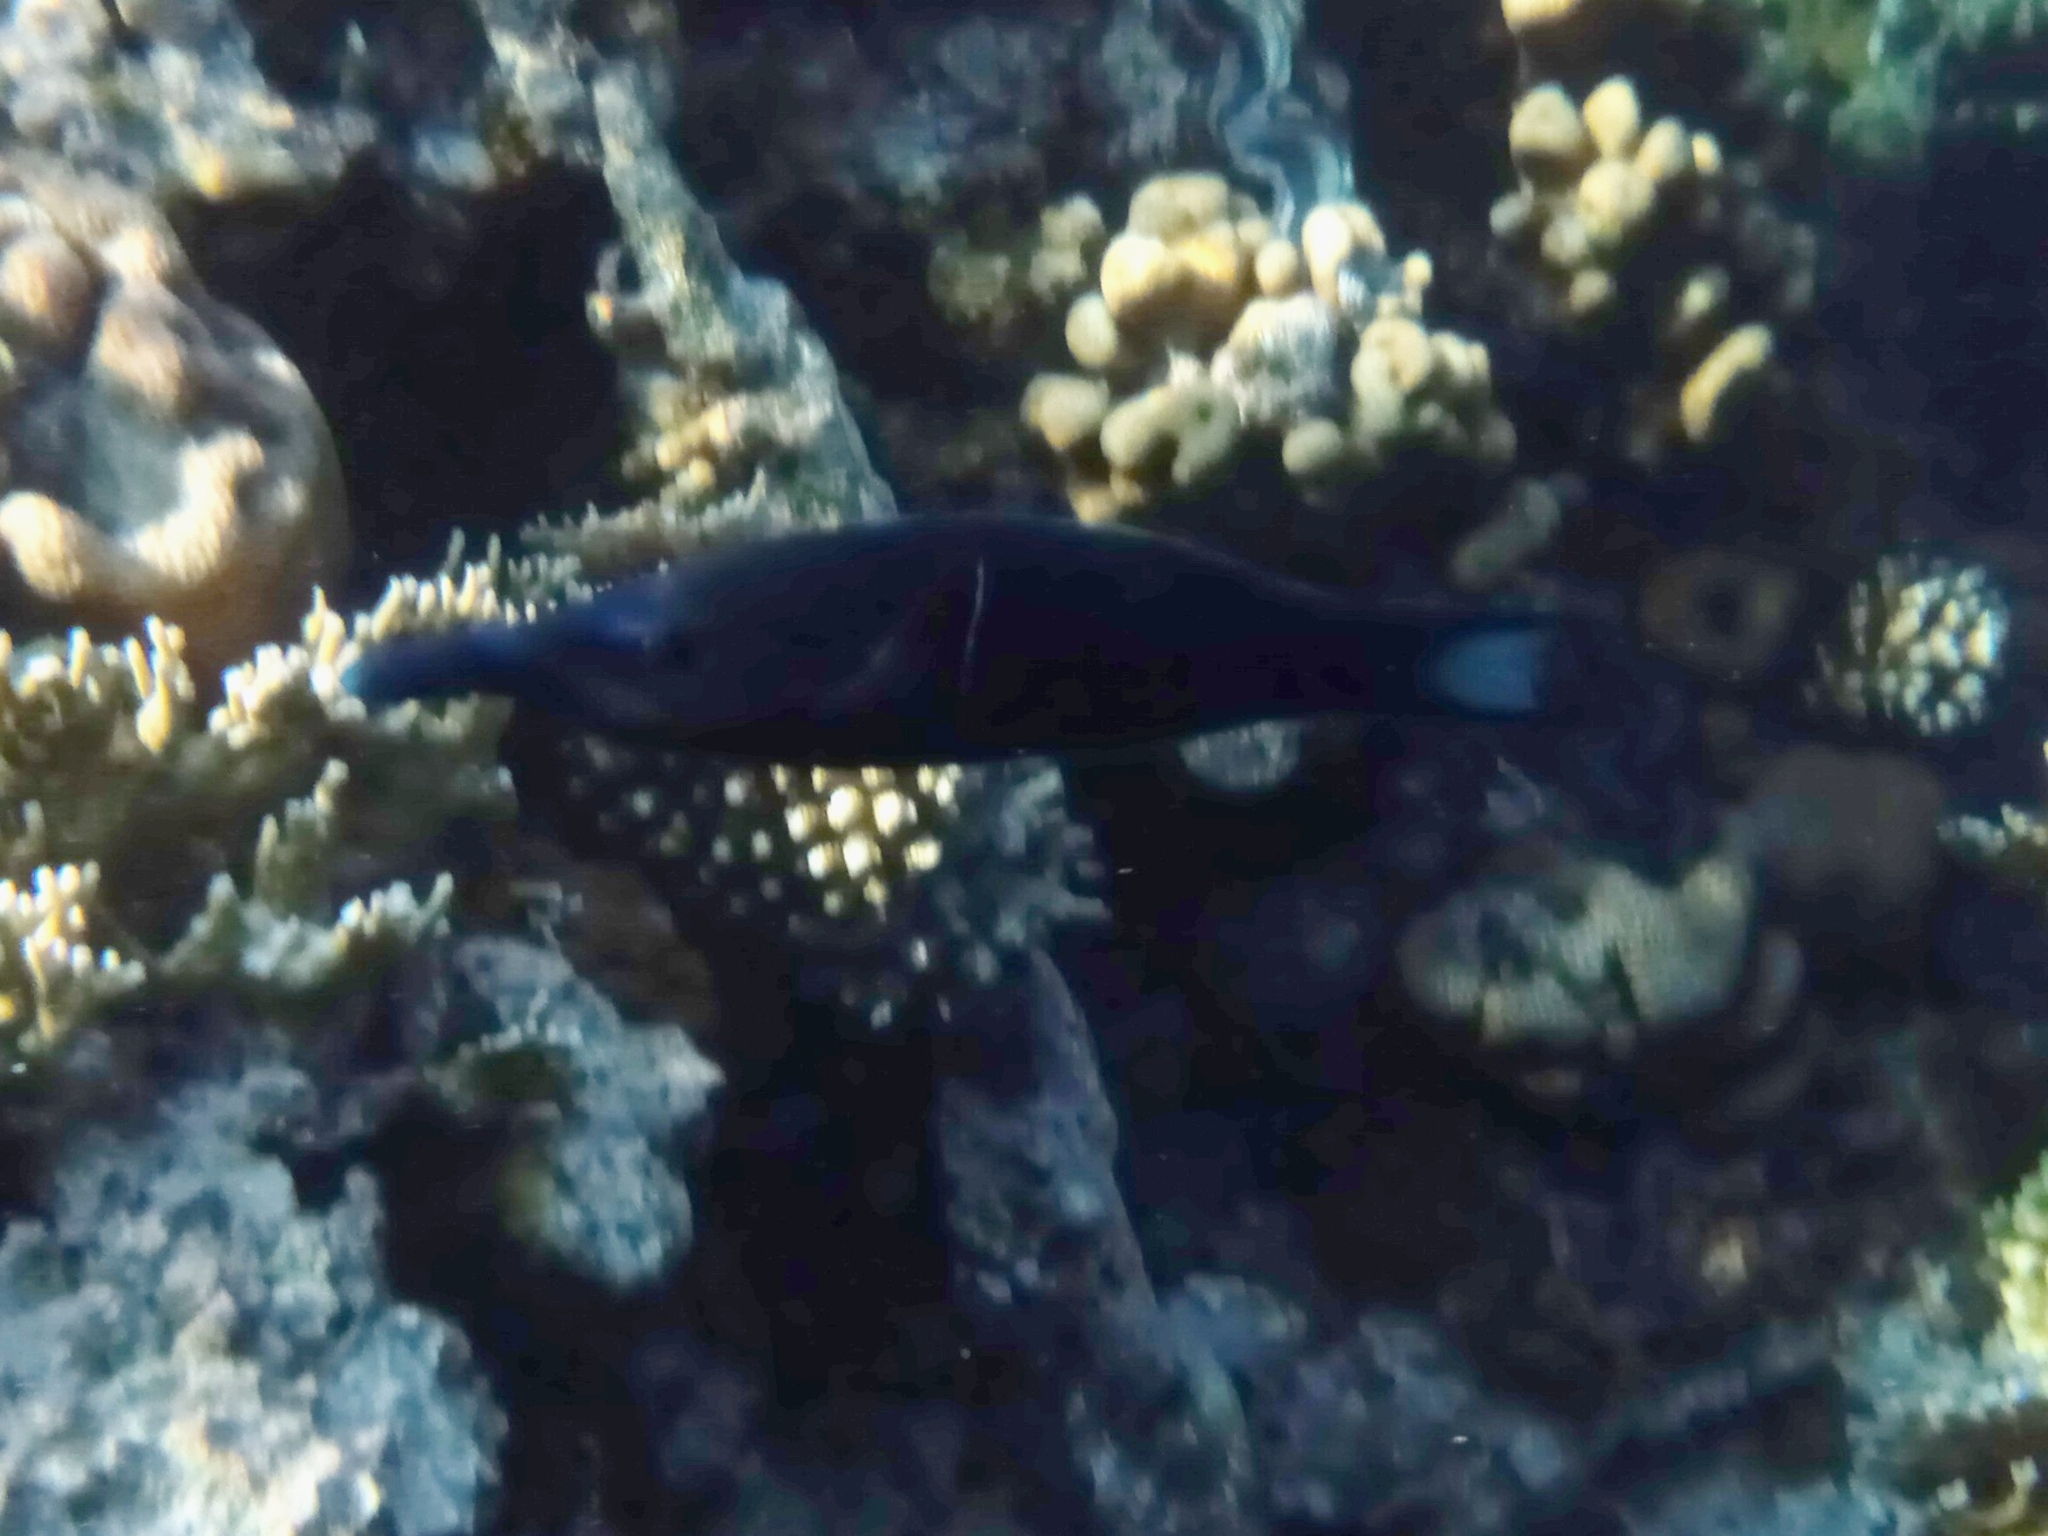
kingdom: Animalia
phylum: Chordata
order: Perciformes
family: Labridae
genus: Gomphosus
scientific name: Gomphosus klunzingeri
